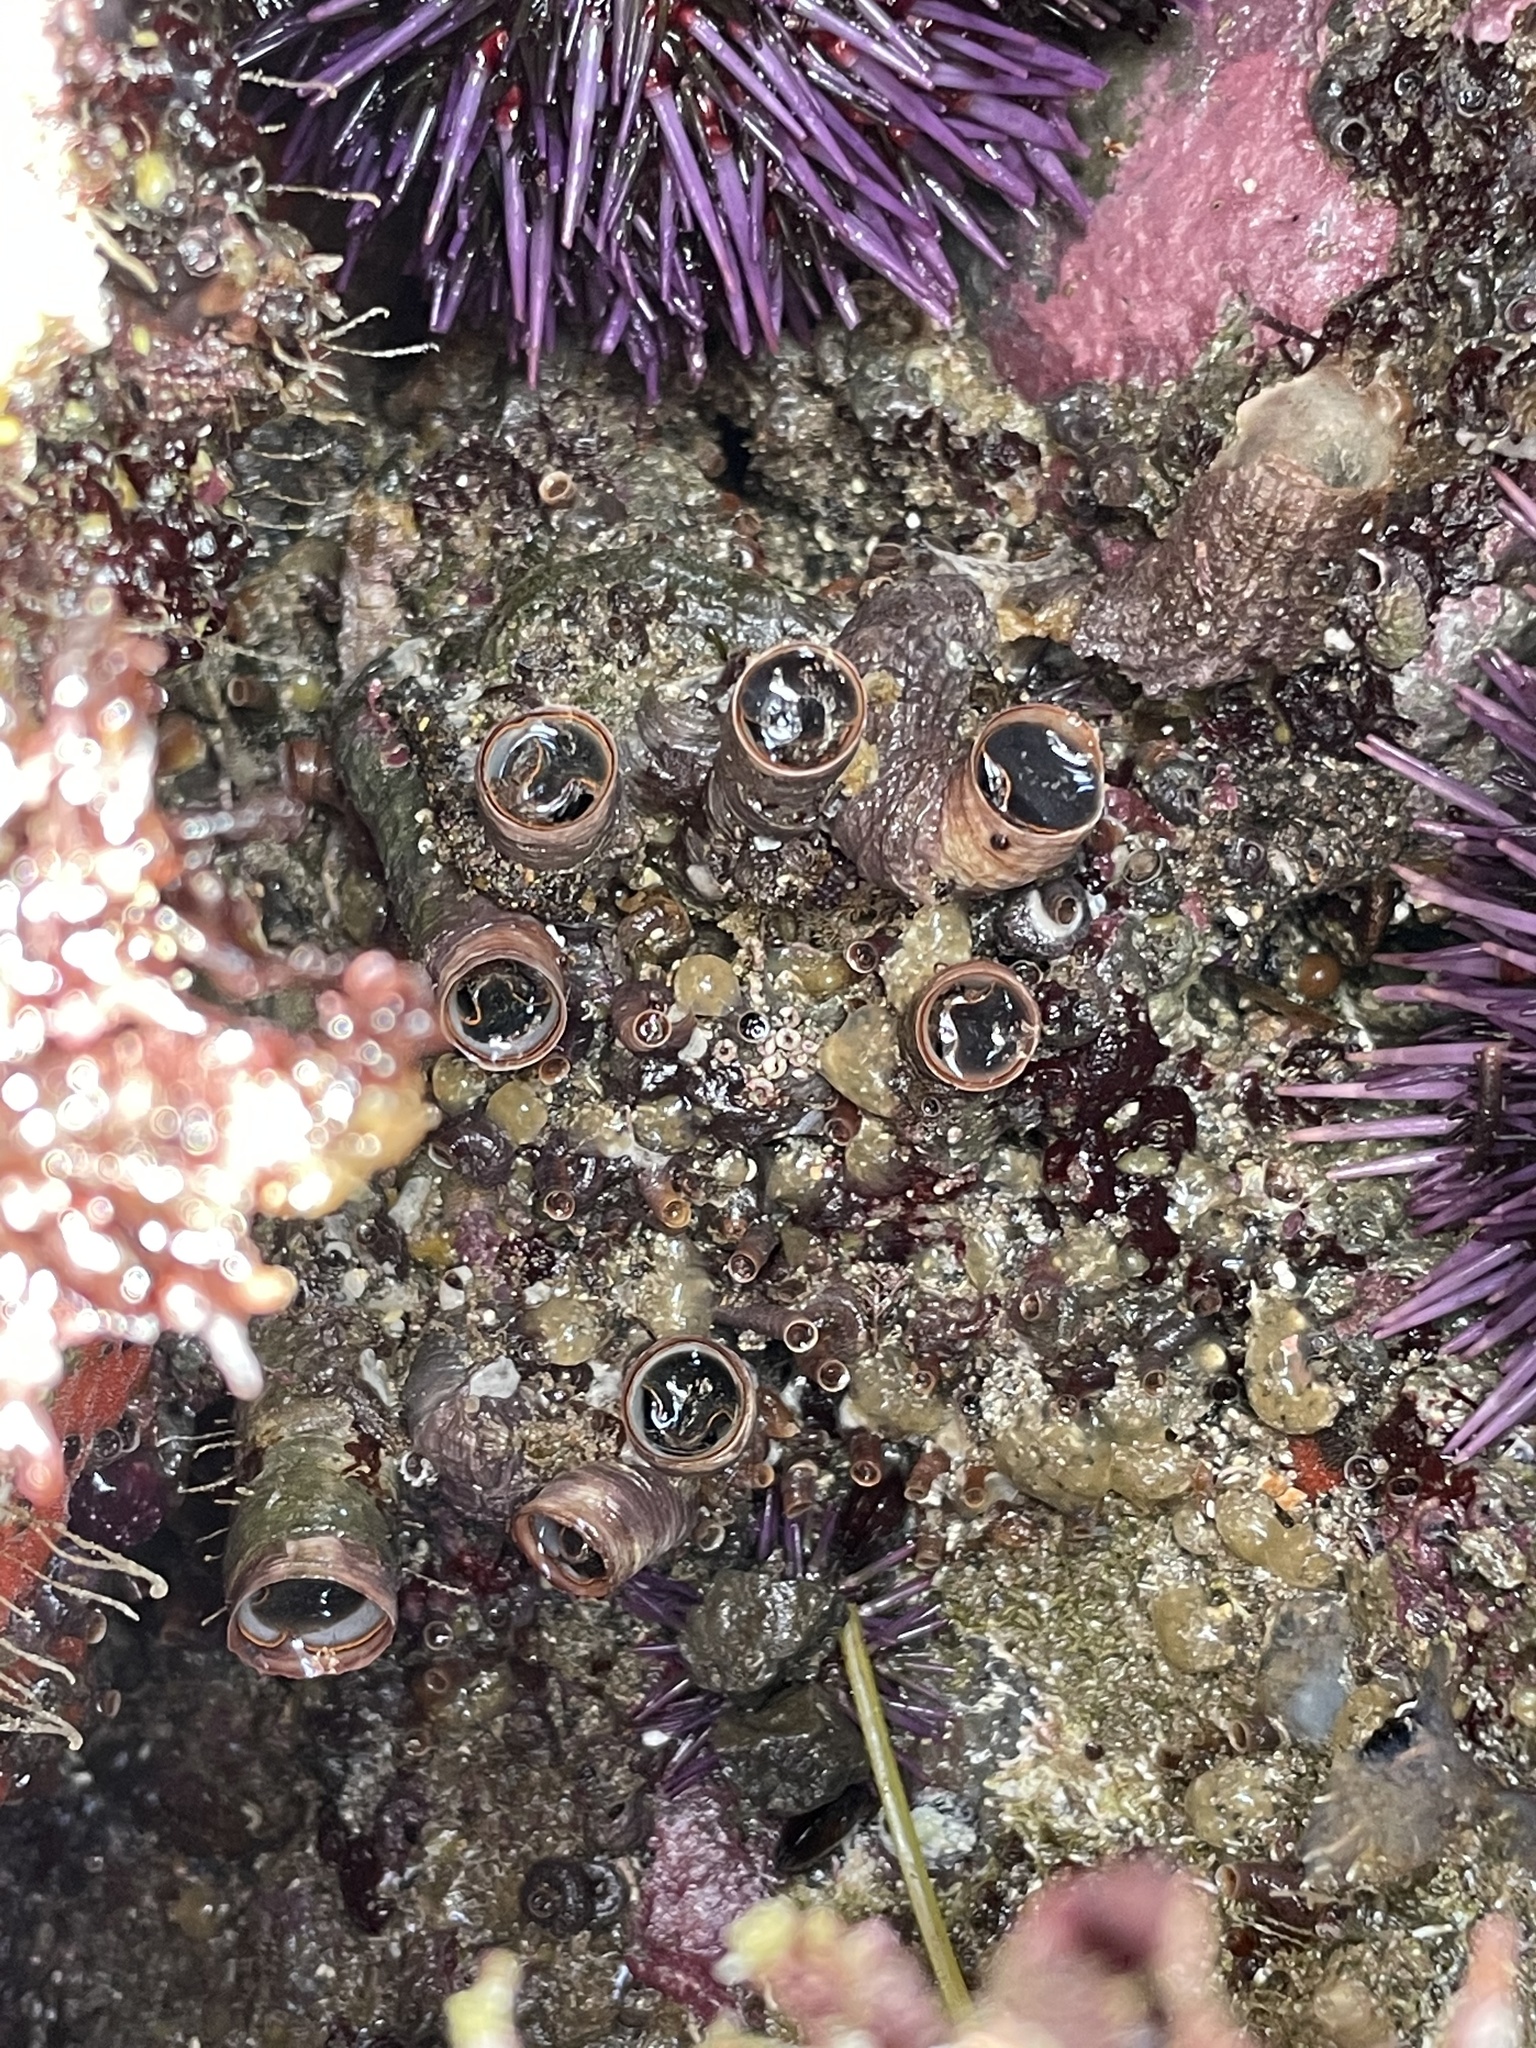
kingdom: Animalia
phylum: Mollusca
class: Gastropoda
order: Littorinimorpha
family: Vermetidae
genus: Thylacodes
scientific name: Thylacodes squamigerus
